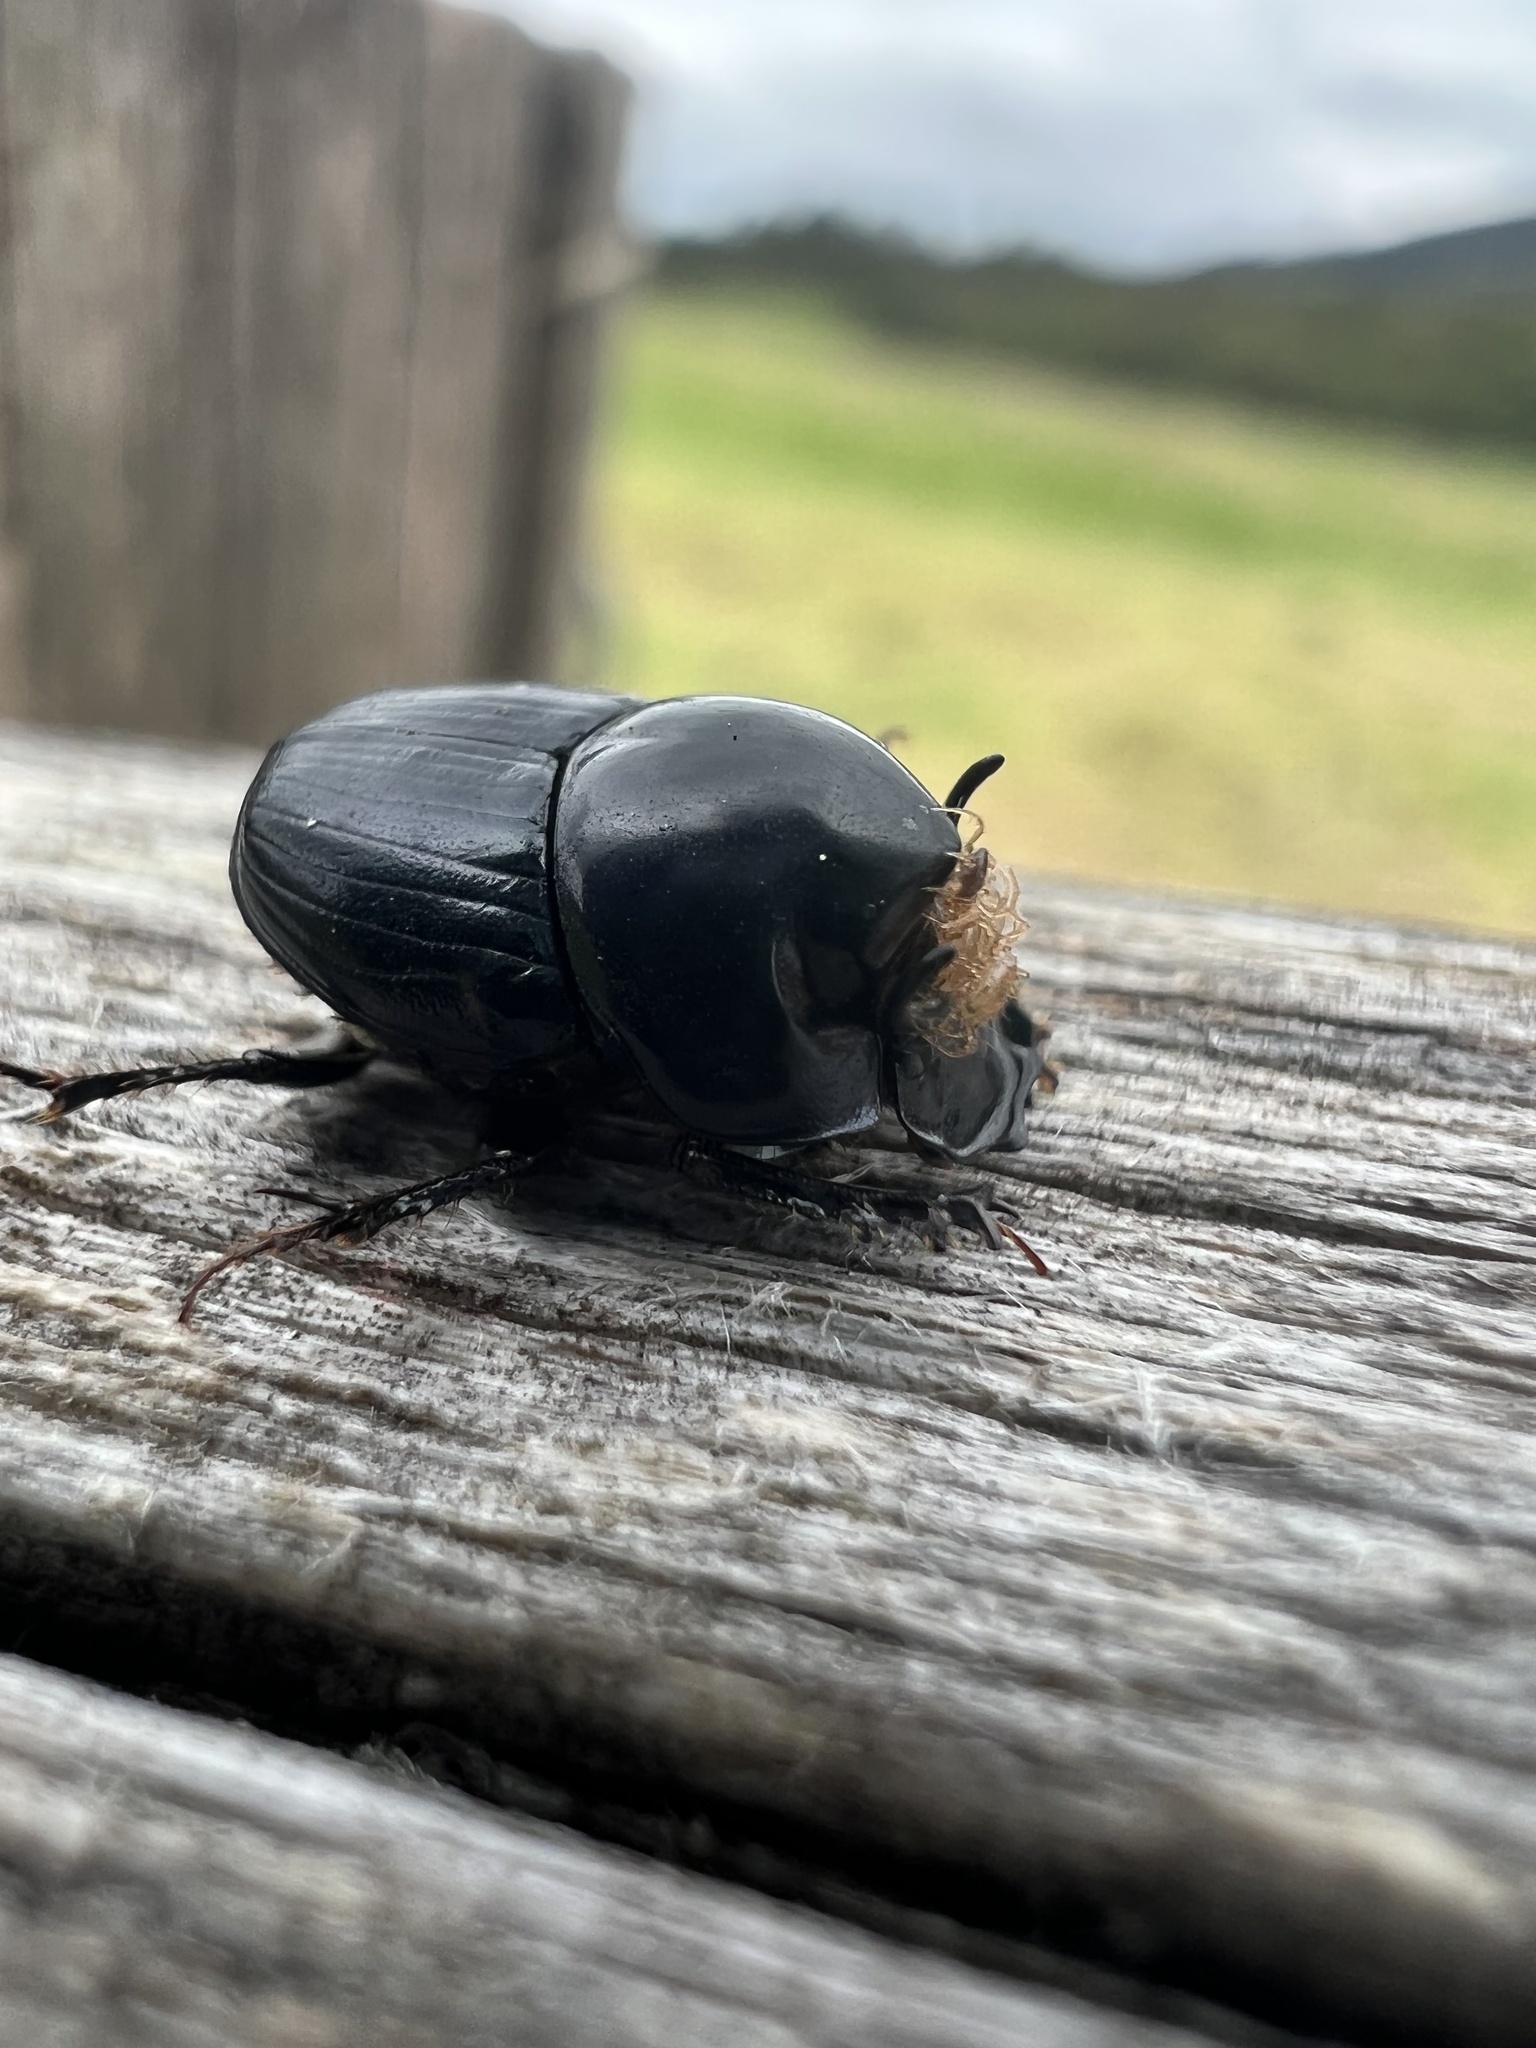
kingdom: Animalia
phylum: Arthropoda
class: Insecta
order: Coleoptera
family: Scarabaeidae
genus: Onthophagus
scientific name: Onthophagus curvicornis
